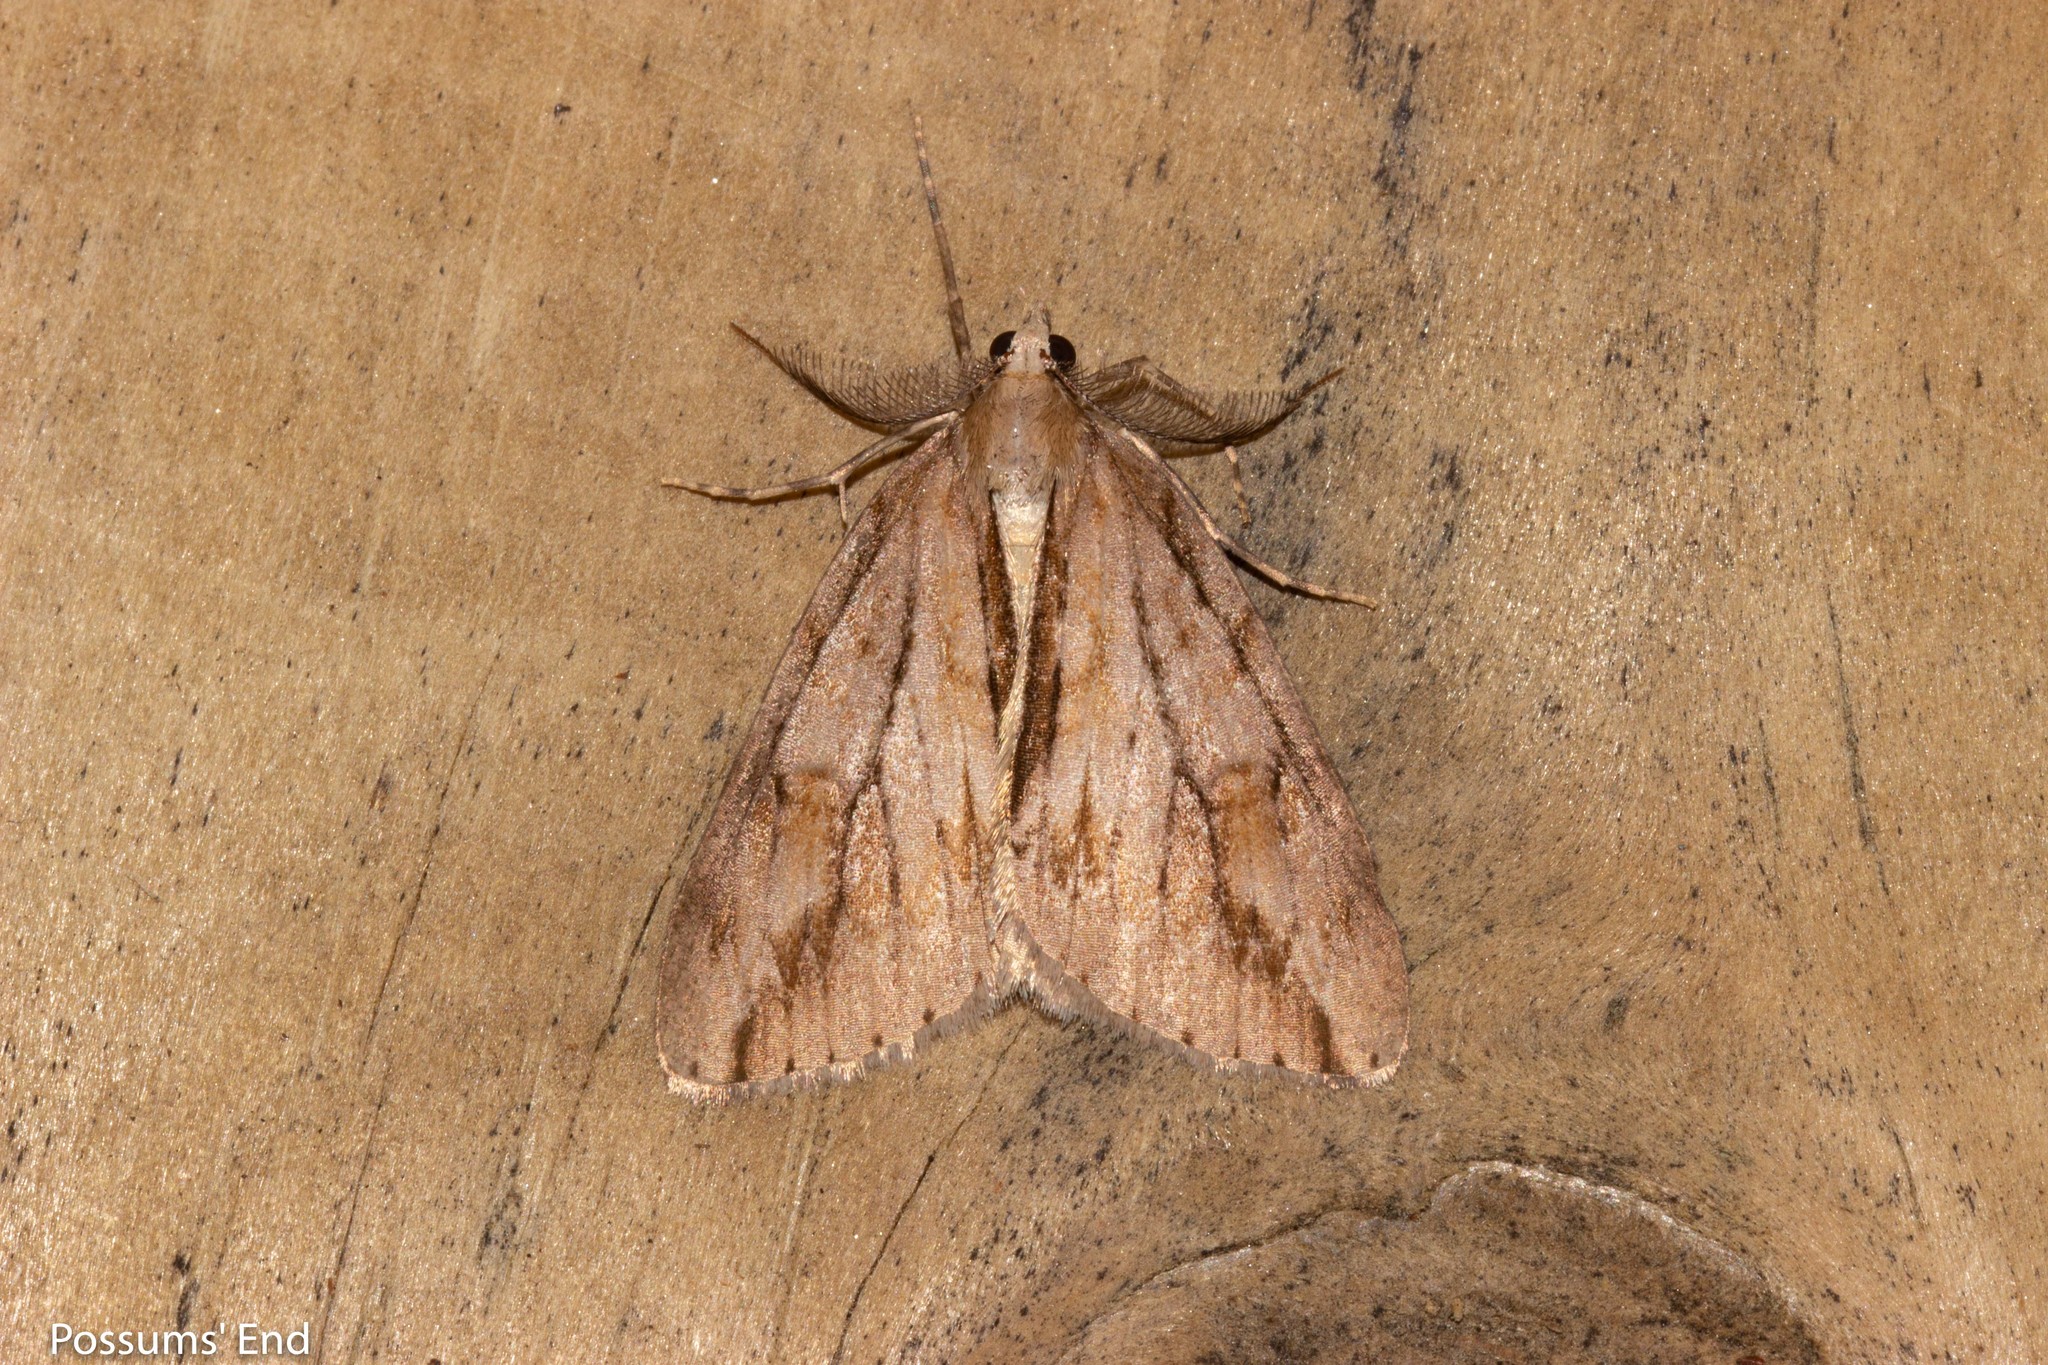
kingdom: Animalia
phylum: Arthropoda
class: Insecta
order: Lepidoptera
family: Geometridae
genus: Pseudocoremia
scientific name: Pseudocoremia lupinata
